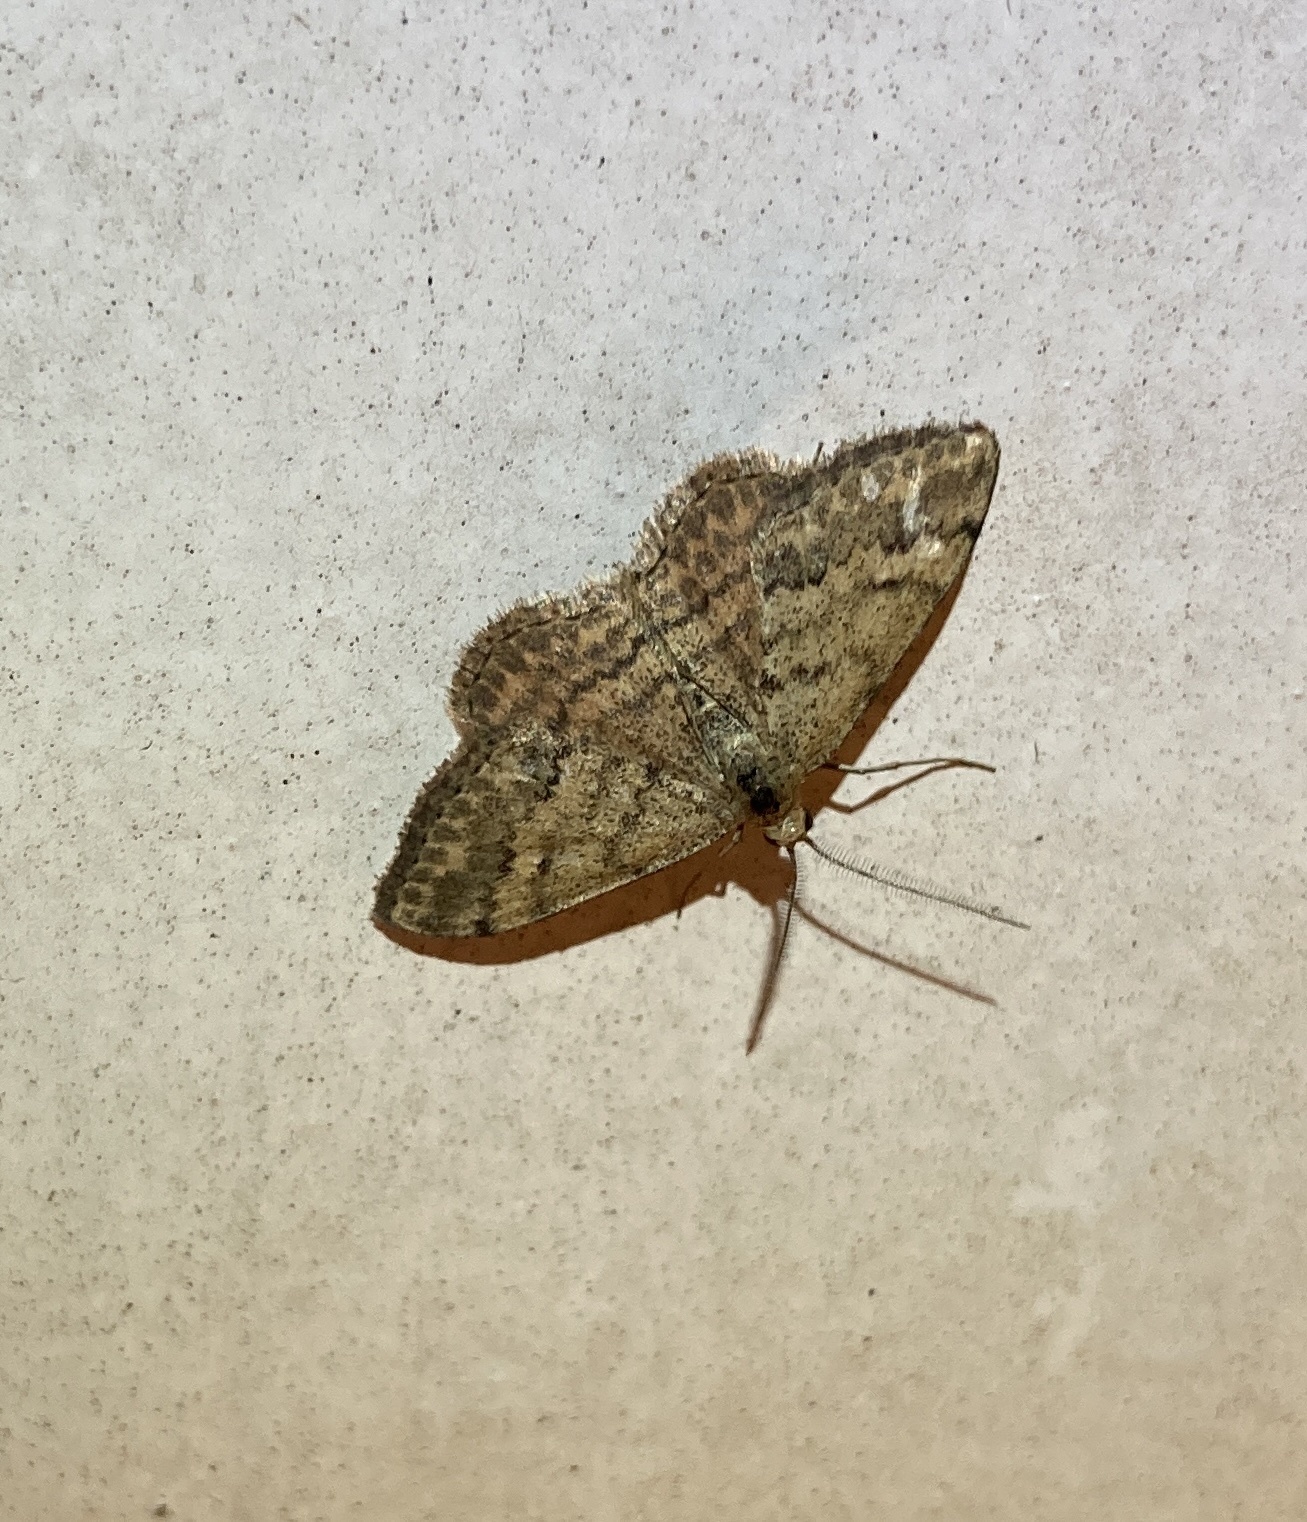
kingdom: Animalia
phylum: Arthropoda
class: Insecta
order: Lepidoptera
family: Geometridae
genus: Scopula
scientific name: Scopula rubraria
